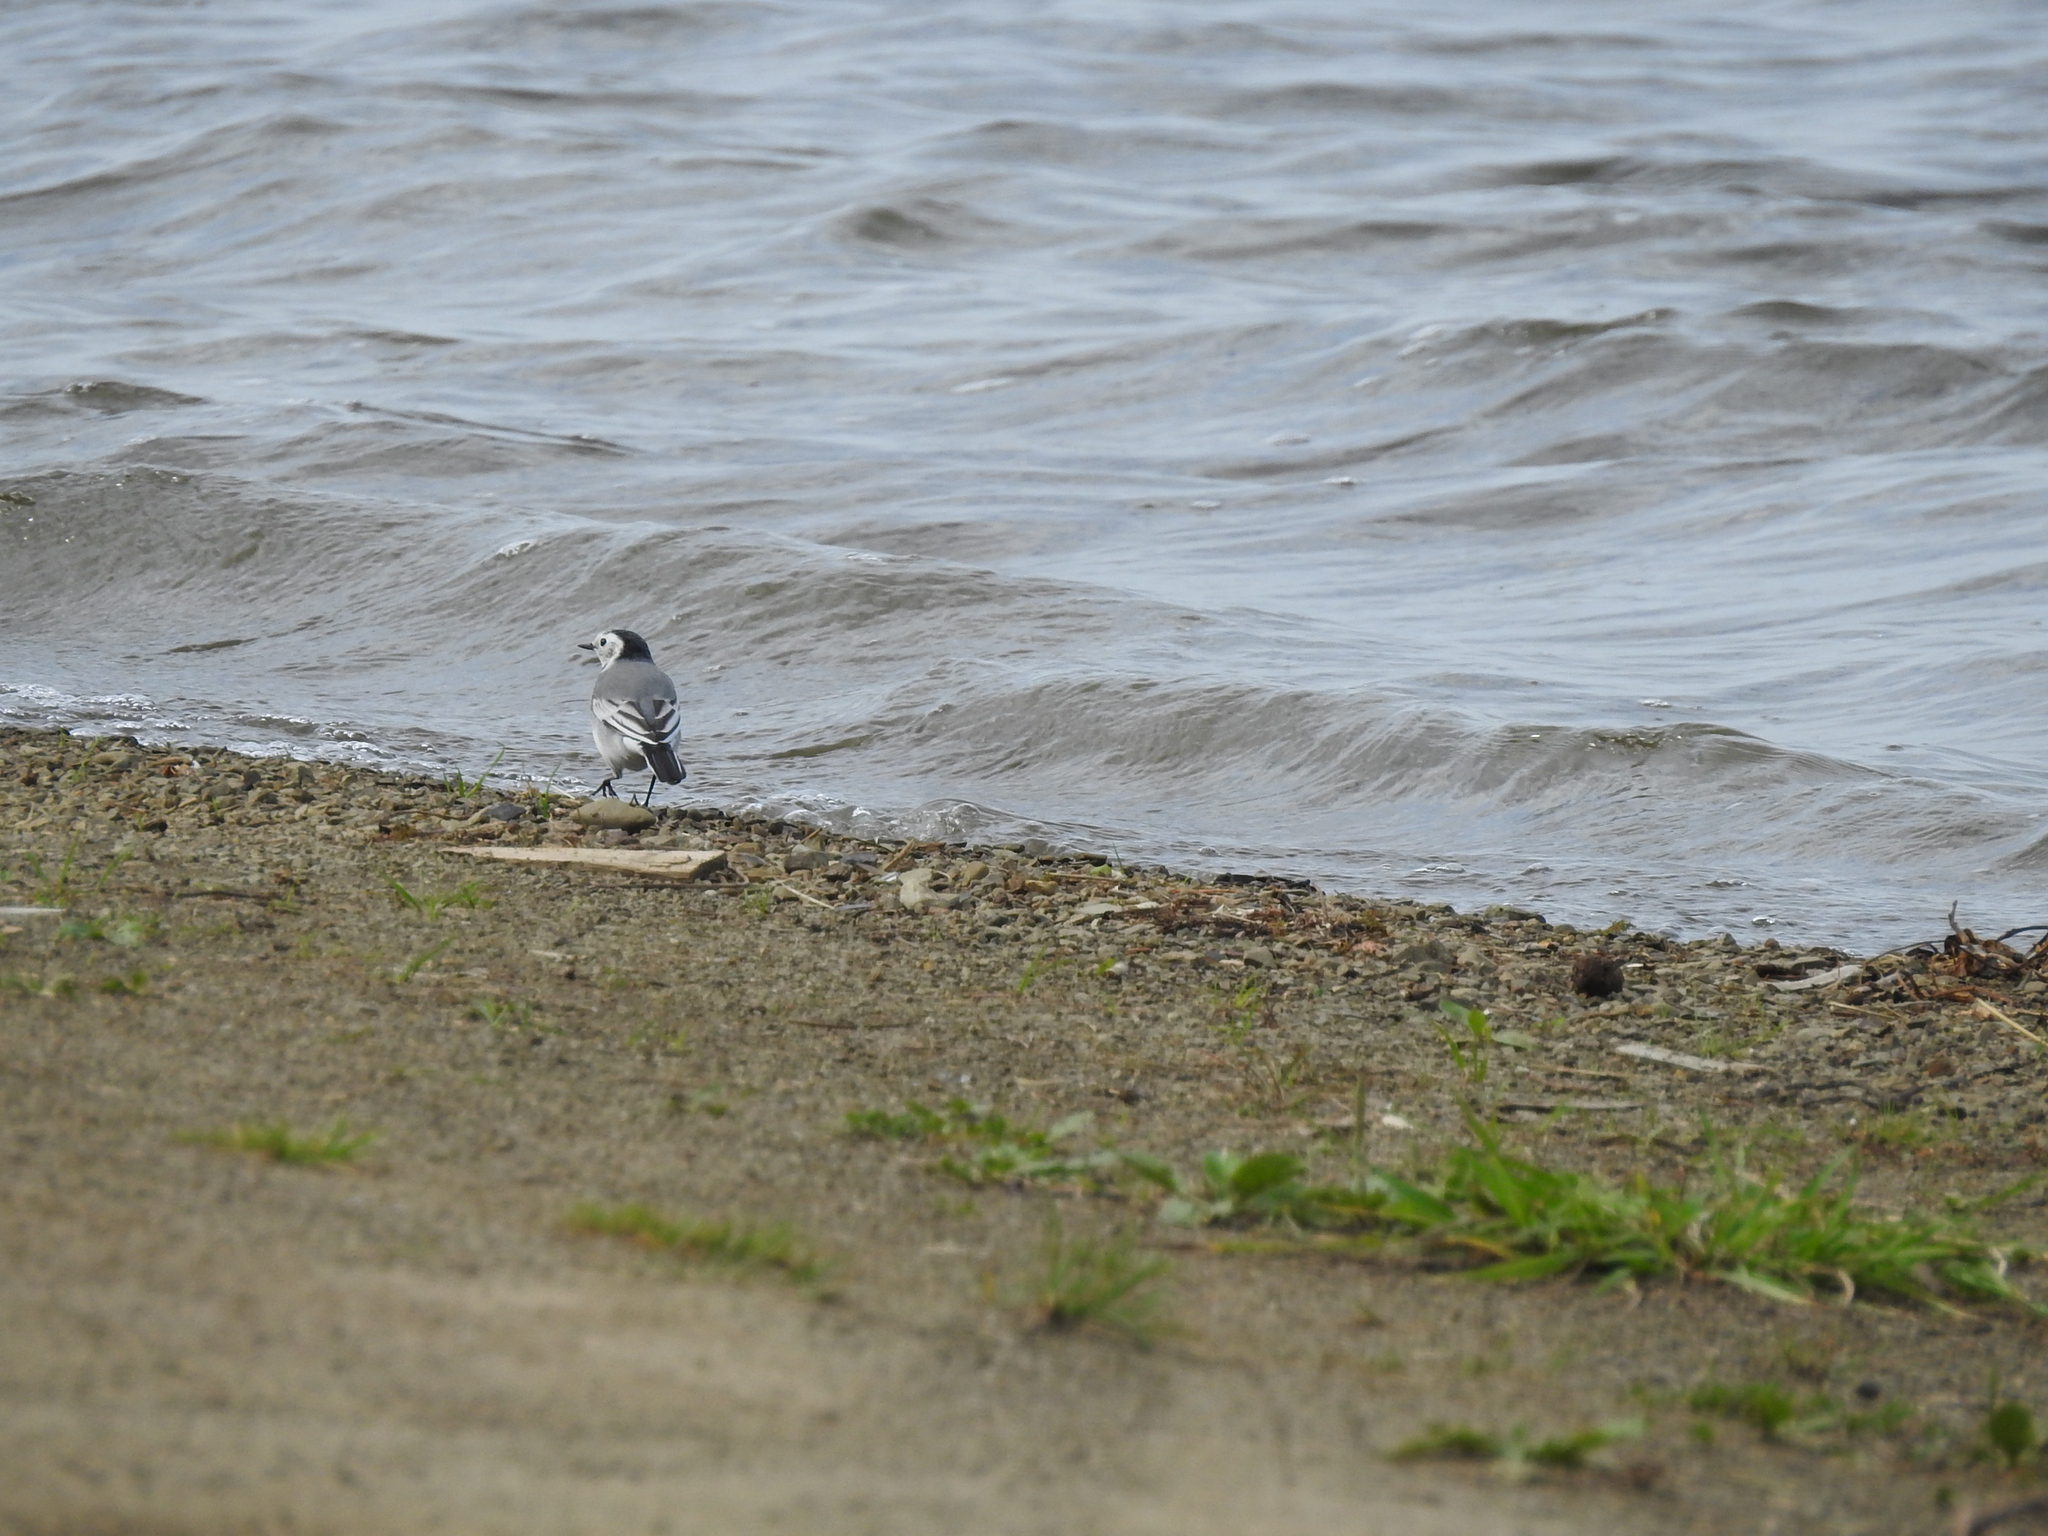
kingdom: Animalia
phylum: Chordata
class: Aves
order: Passeriformes
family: Motacillidae
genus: Motacilla
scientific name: Motacilla alba
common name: White wagtail
